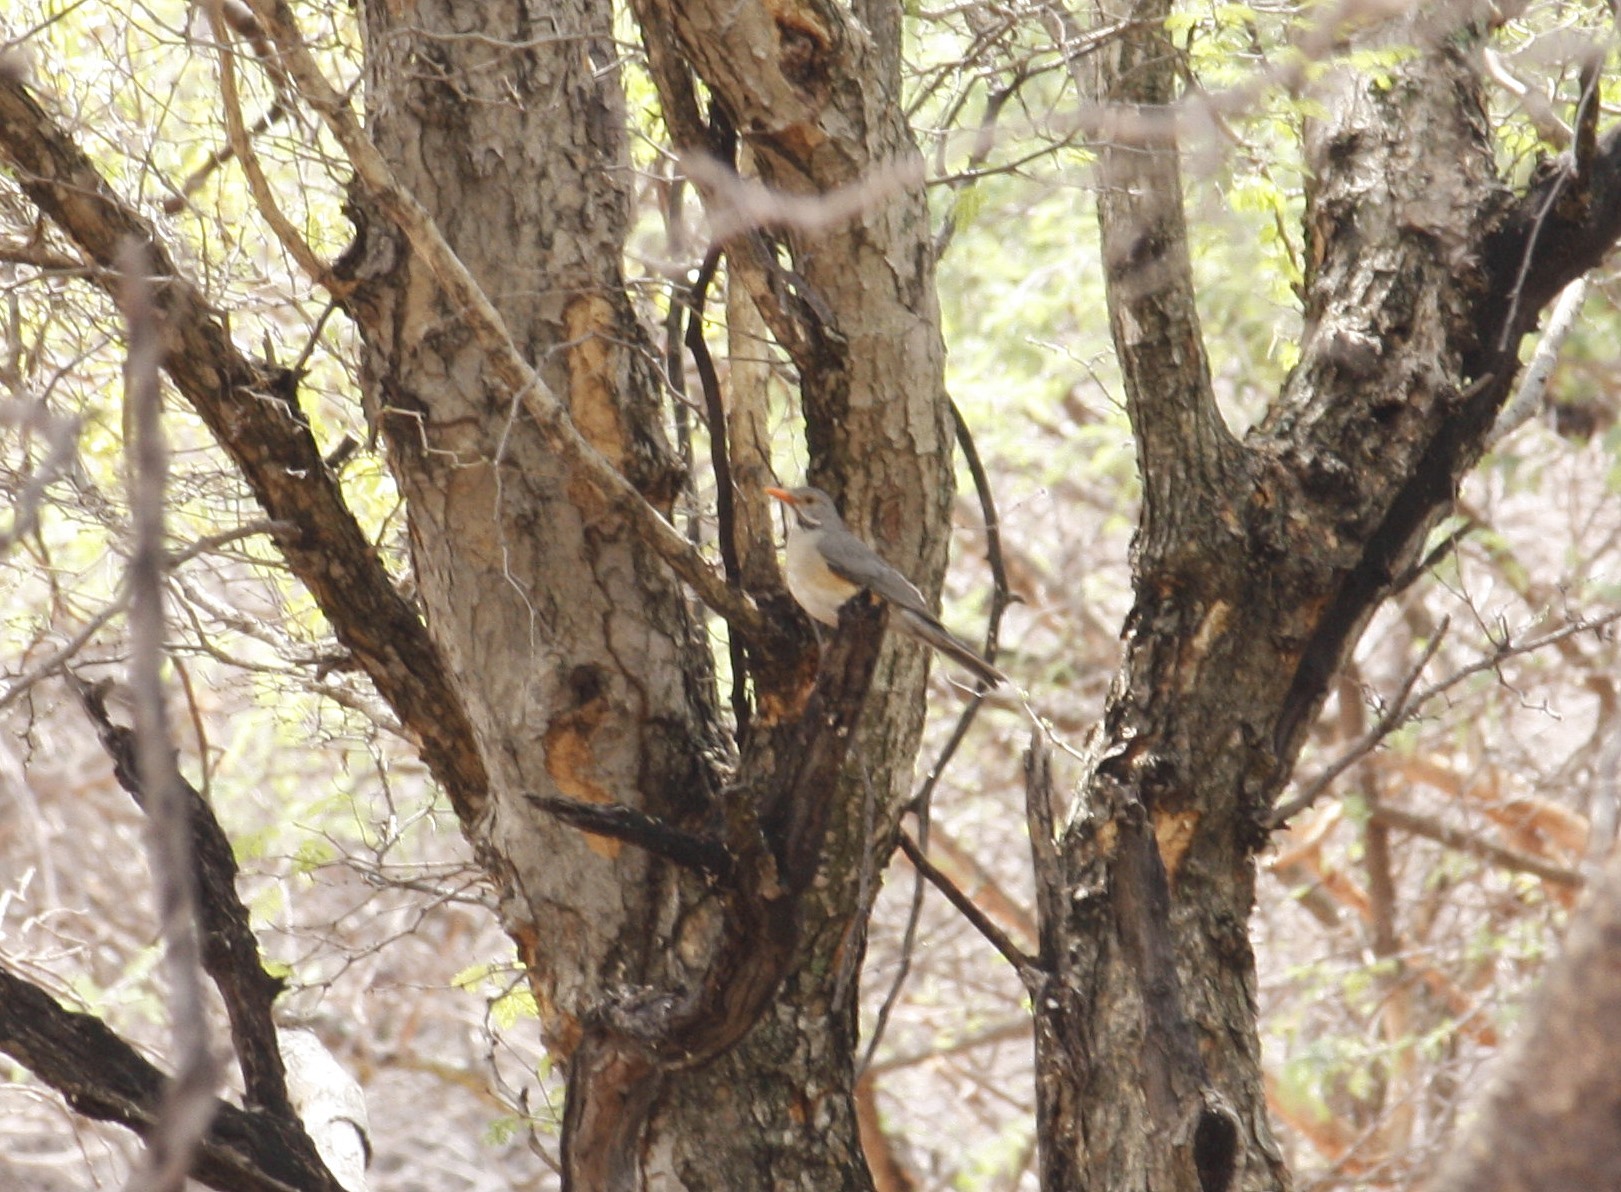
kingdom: Animalia
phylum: Chordata
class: Aves
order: Passeriformes
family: Turdidae
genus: Turdus
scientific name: Turdus libonyana
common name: Kurrichane thrush
